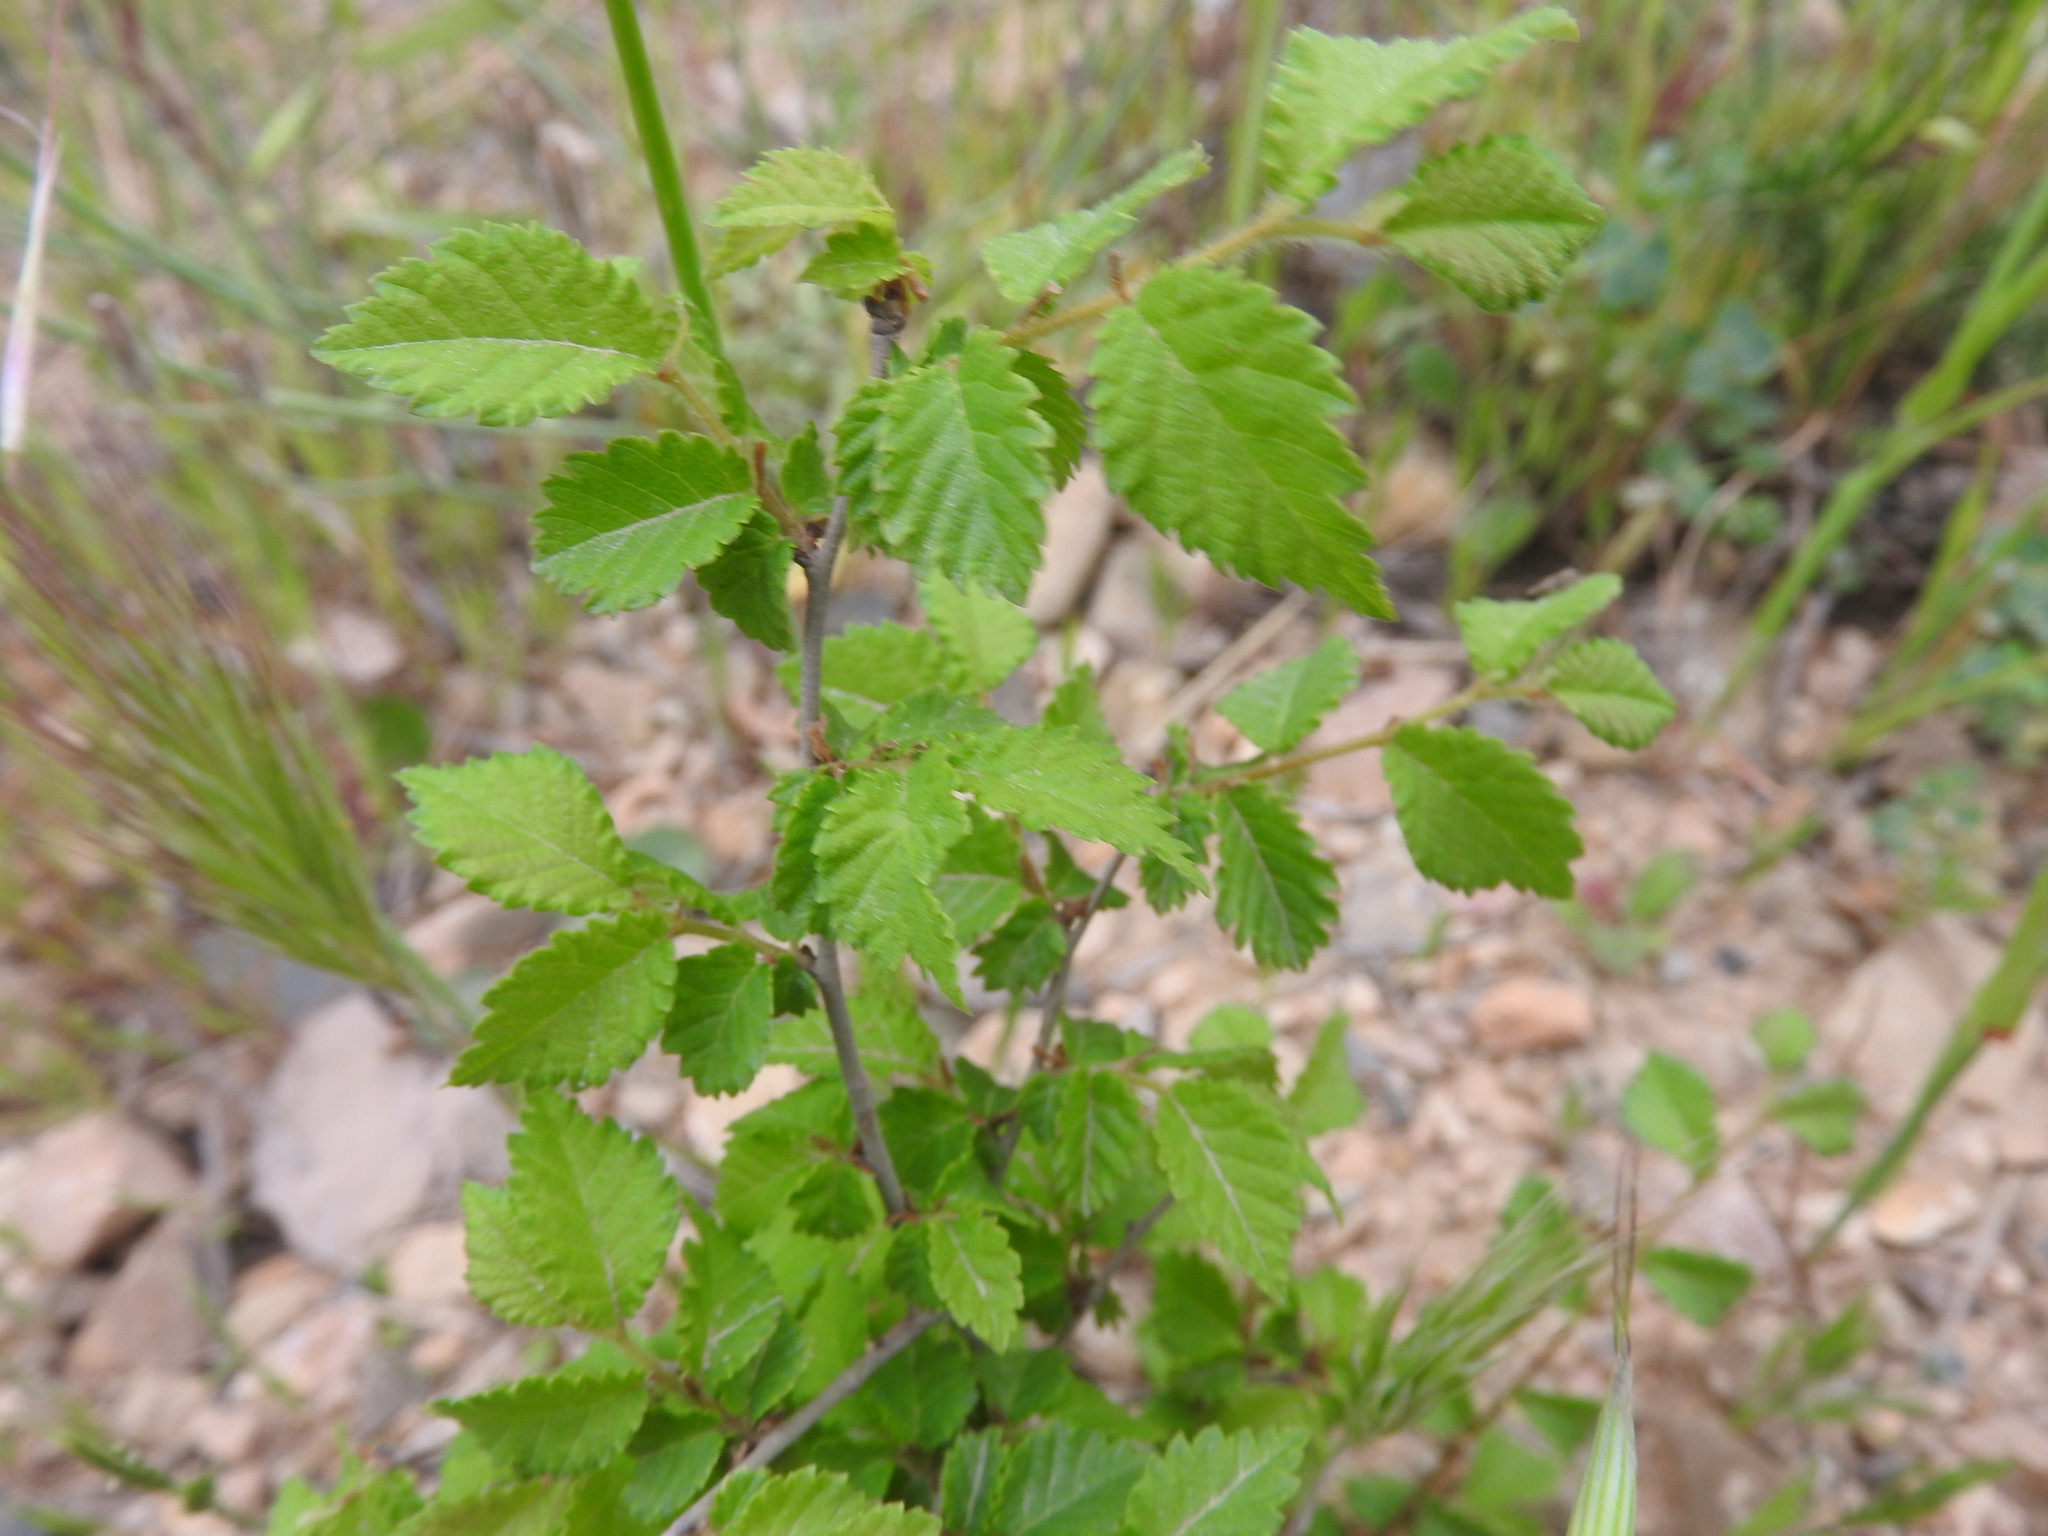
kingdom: Plantae
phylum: Tracheophyta
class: Magnoliopsida
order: Rosales
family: Ulmaceae
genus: Ulmus
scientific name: Ulmus minor
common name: Small-leaved elm
